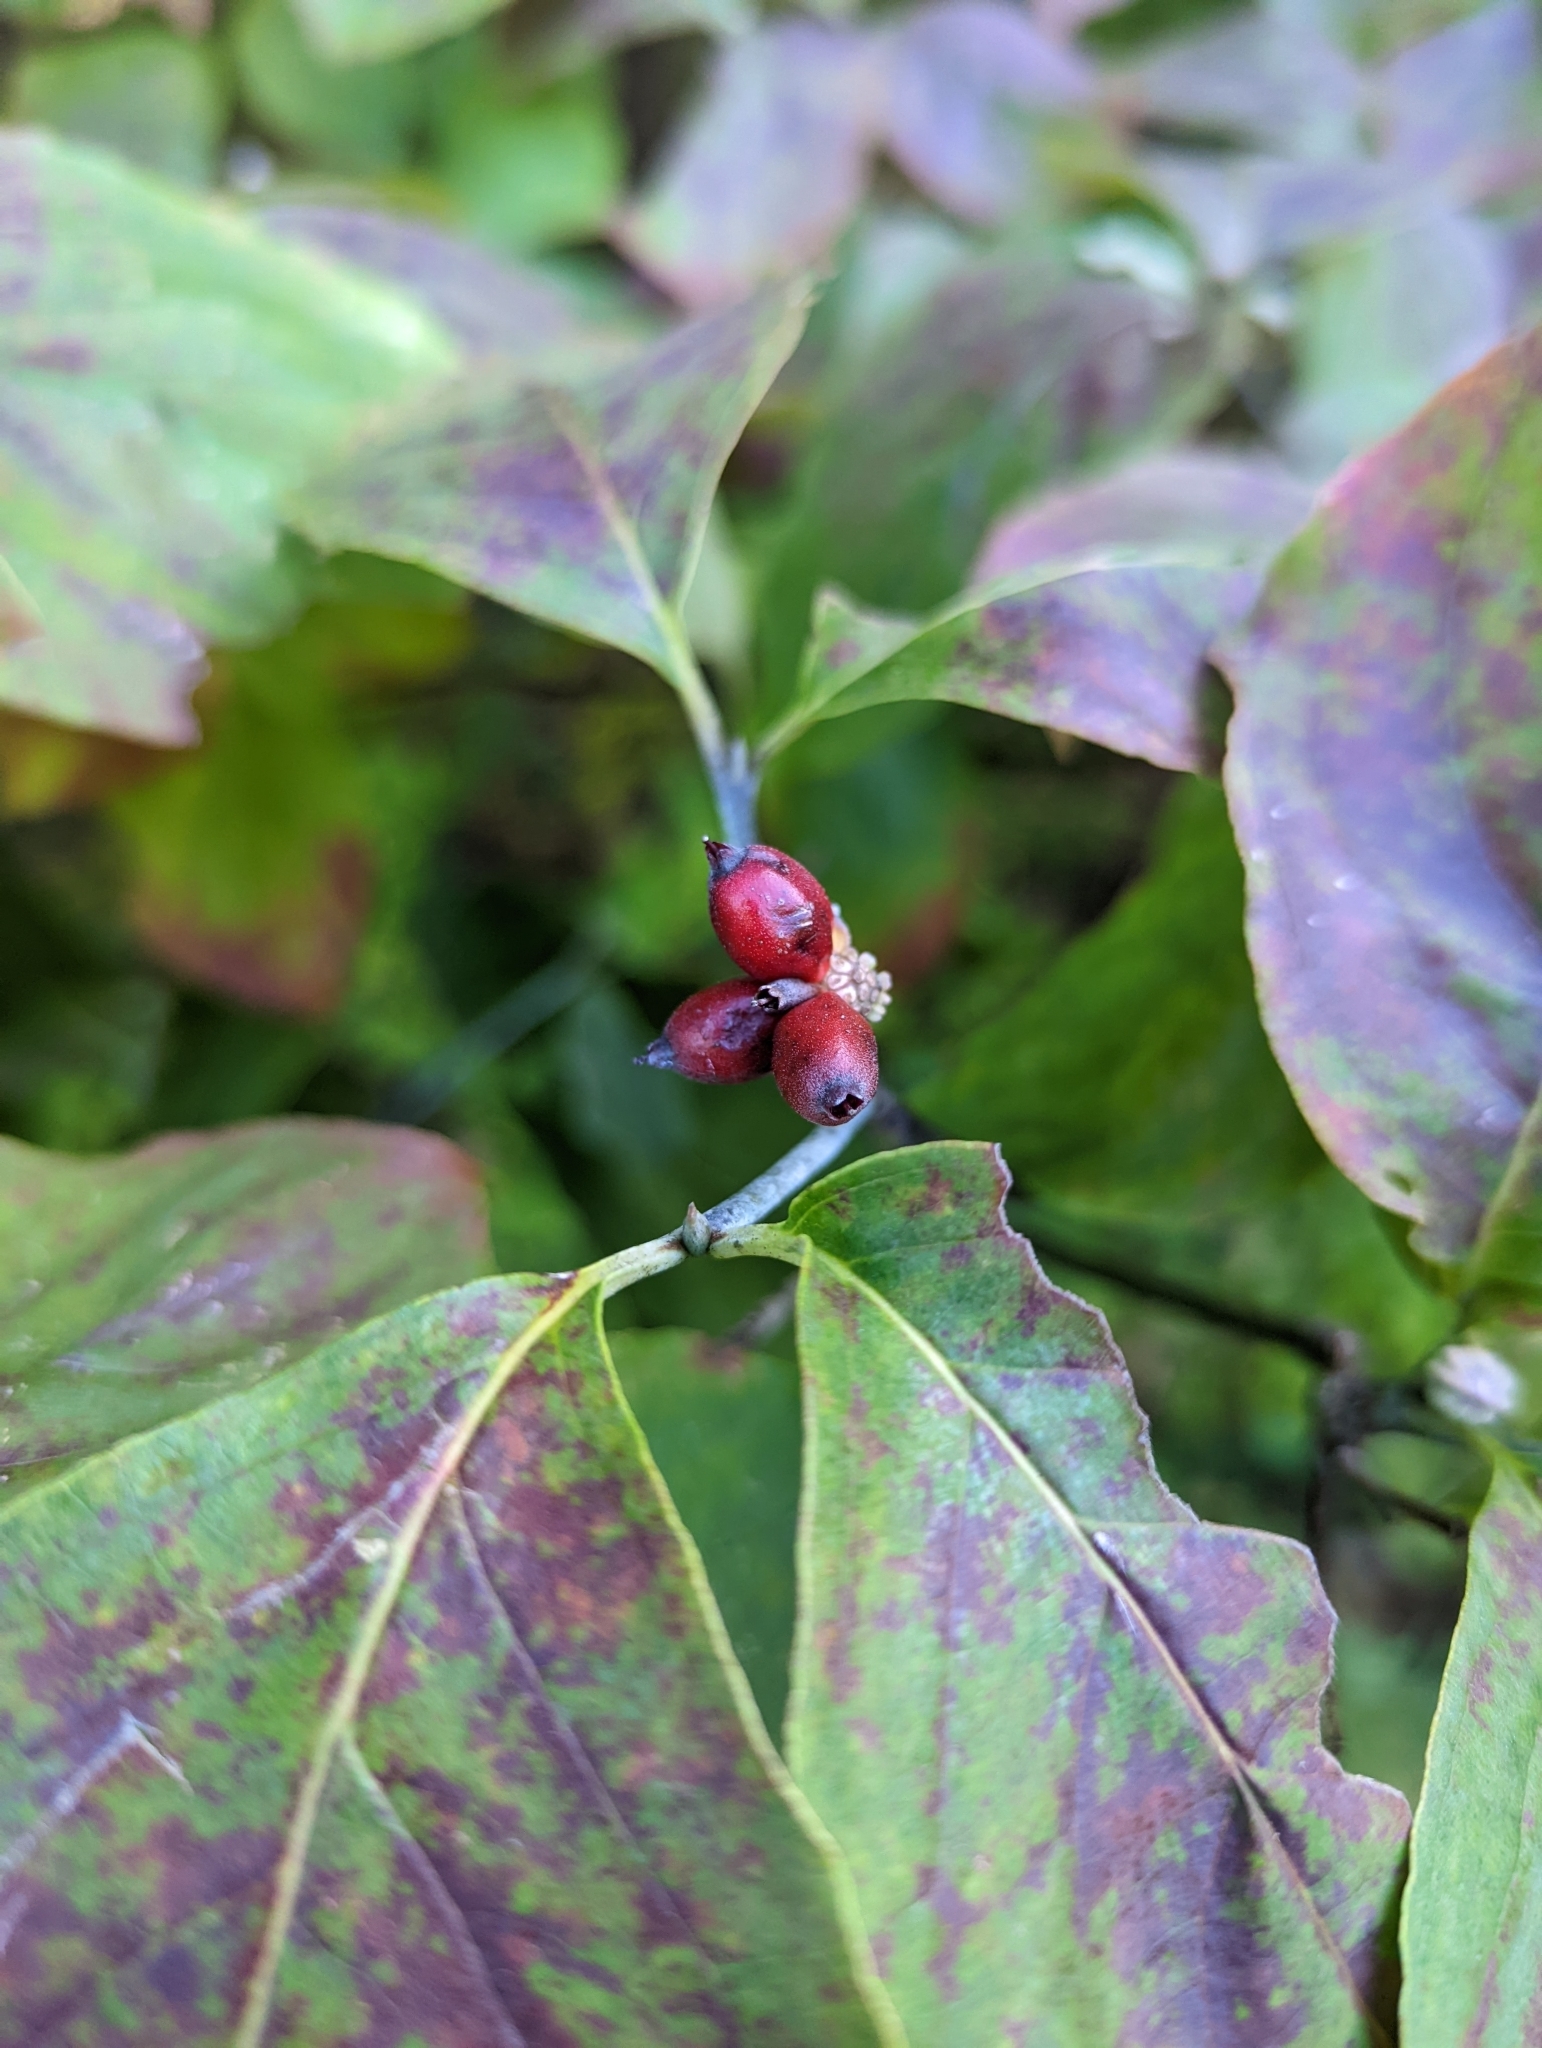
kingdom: Plantae
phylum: Tracheophyta
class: Magnoliopsida
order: Cornales
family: Cornaceae
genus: Cornus
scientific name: Cornus florida
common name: Flowering dogwood
